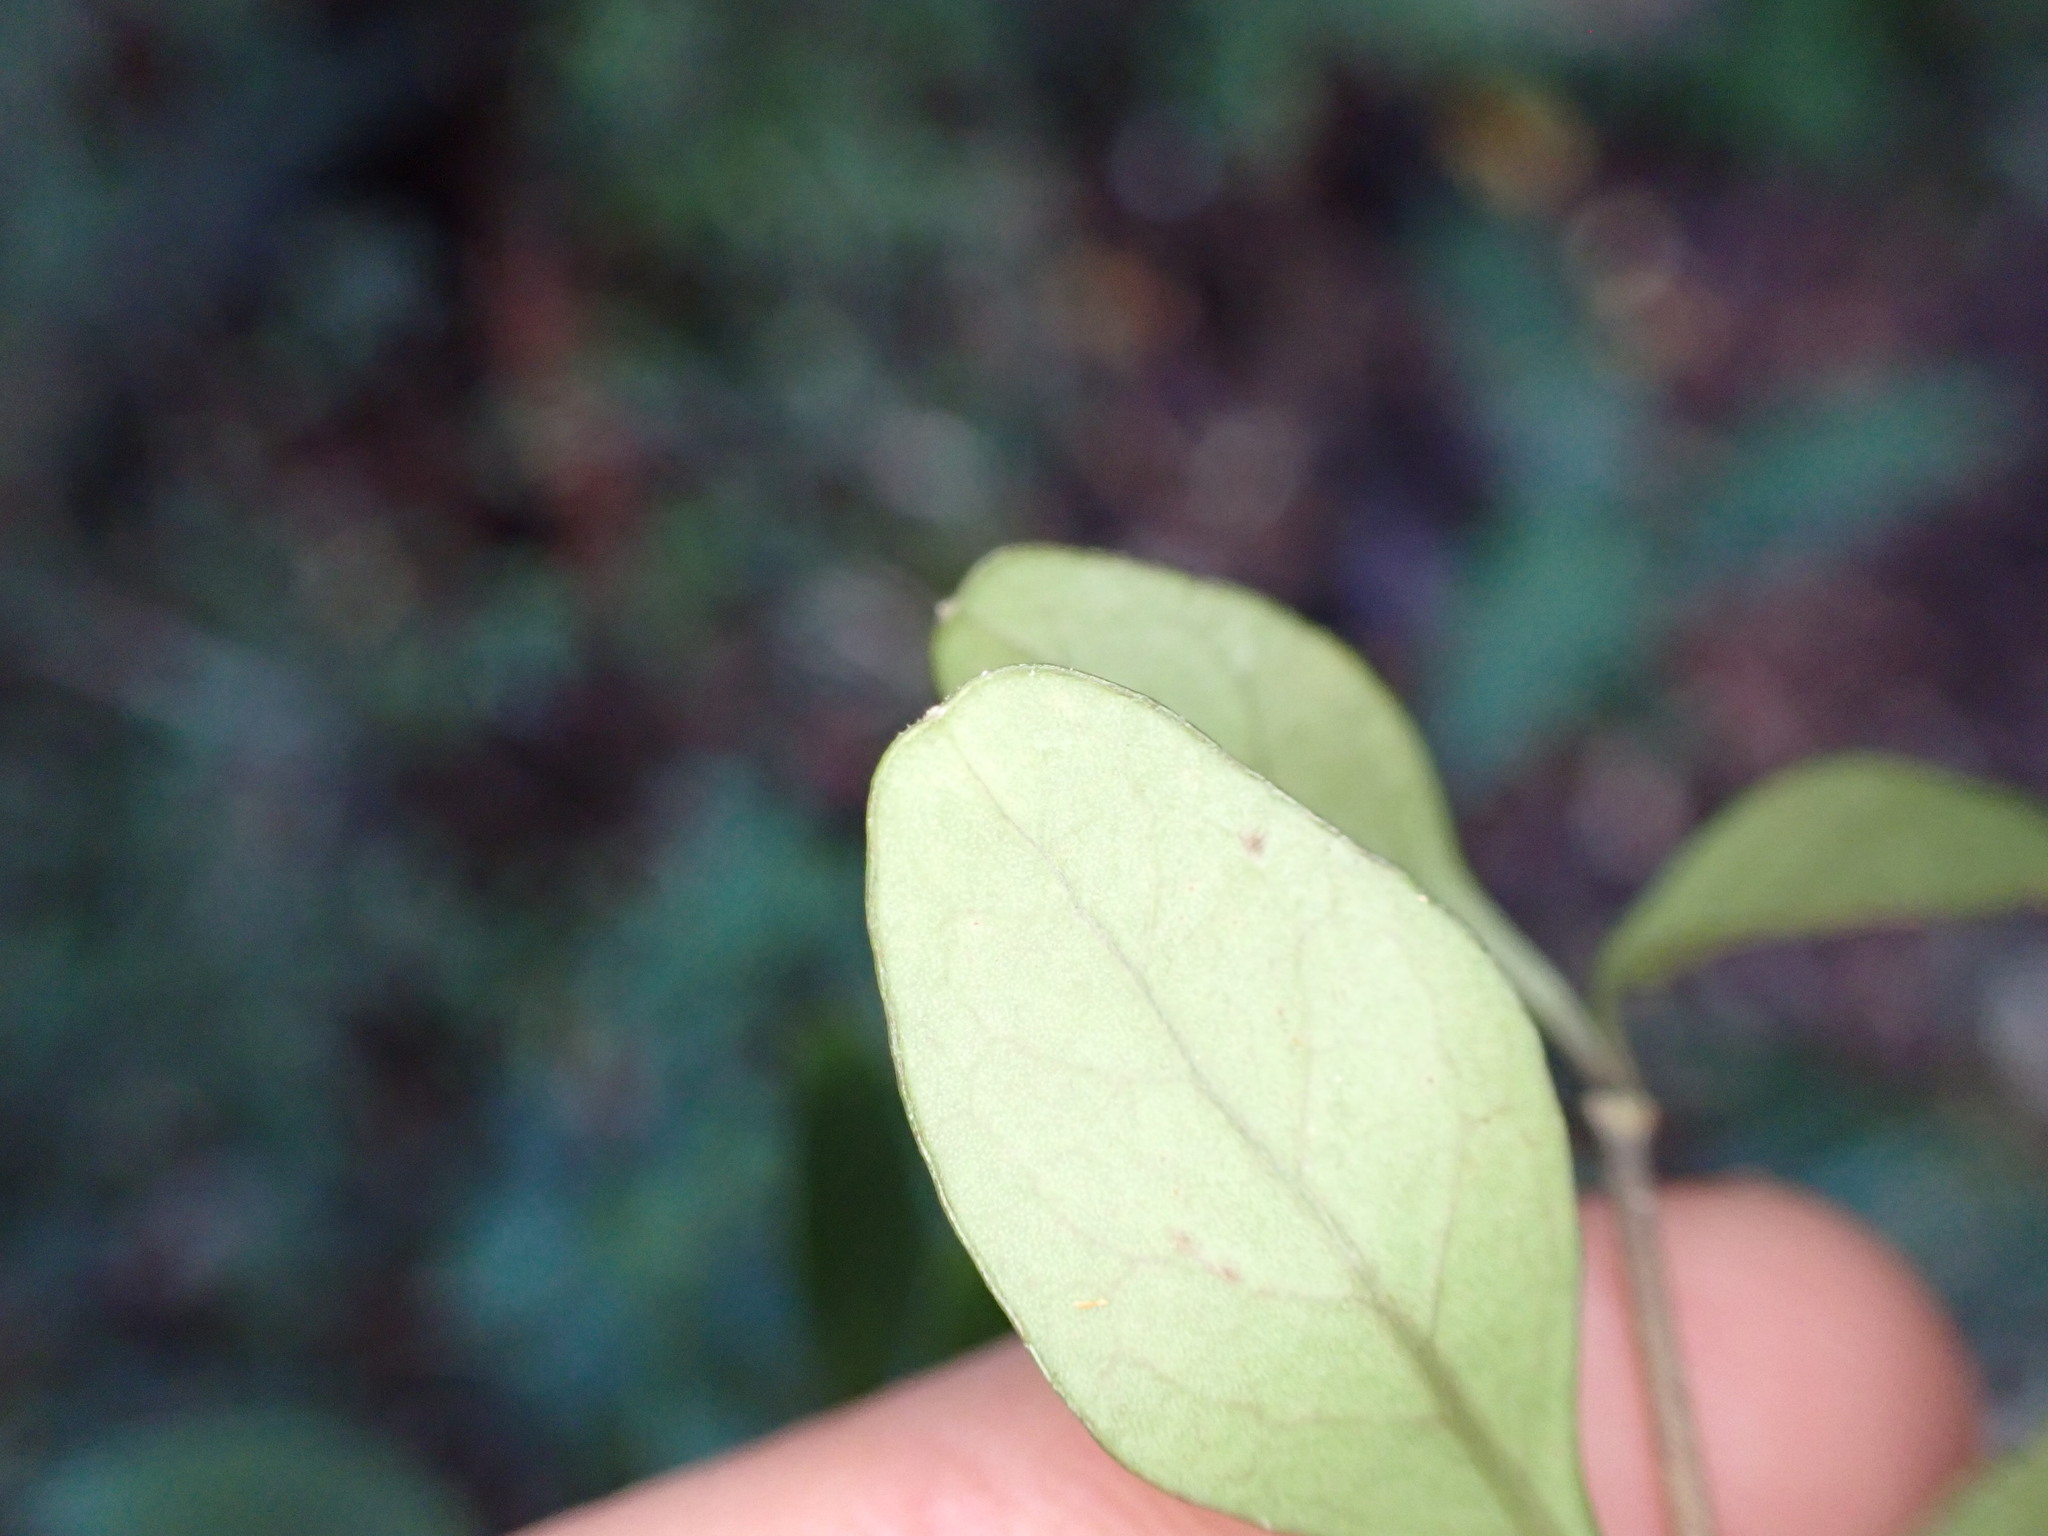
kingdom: Plantae
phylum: Tracheophyta
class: Magnoliopsida
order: Gentianales
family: Rubiaceae
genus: Coprosma
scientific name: Coprosma colensoi
